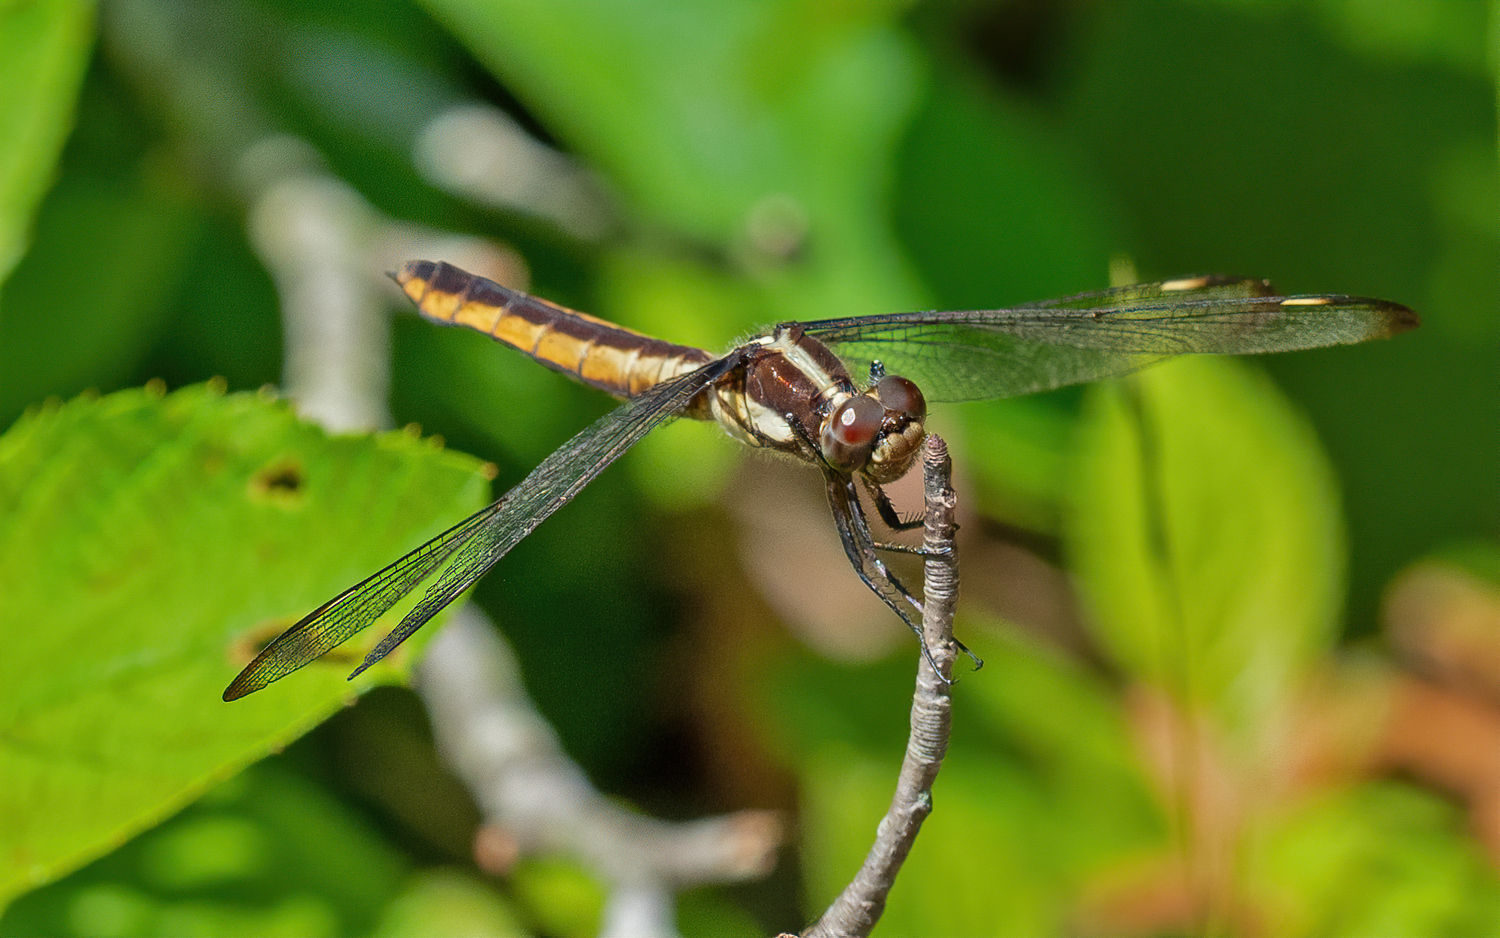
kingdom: Animalia
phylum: Arthropoda
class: Insecta
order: Odonata
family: Libellulidae
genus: Libellula
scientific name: Libellula cyanea
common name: Spangled skimmer
